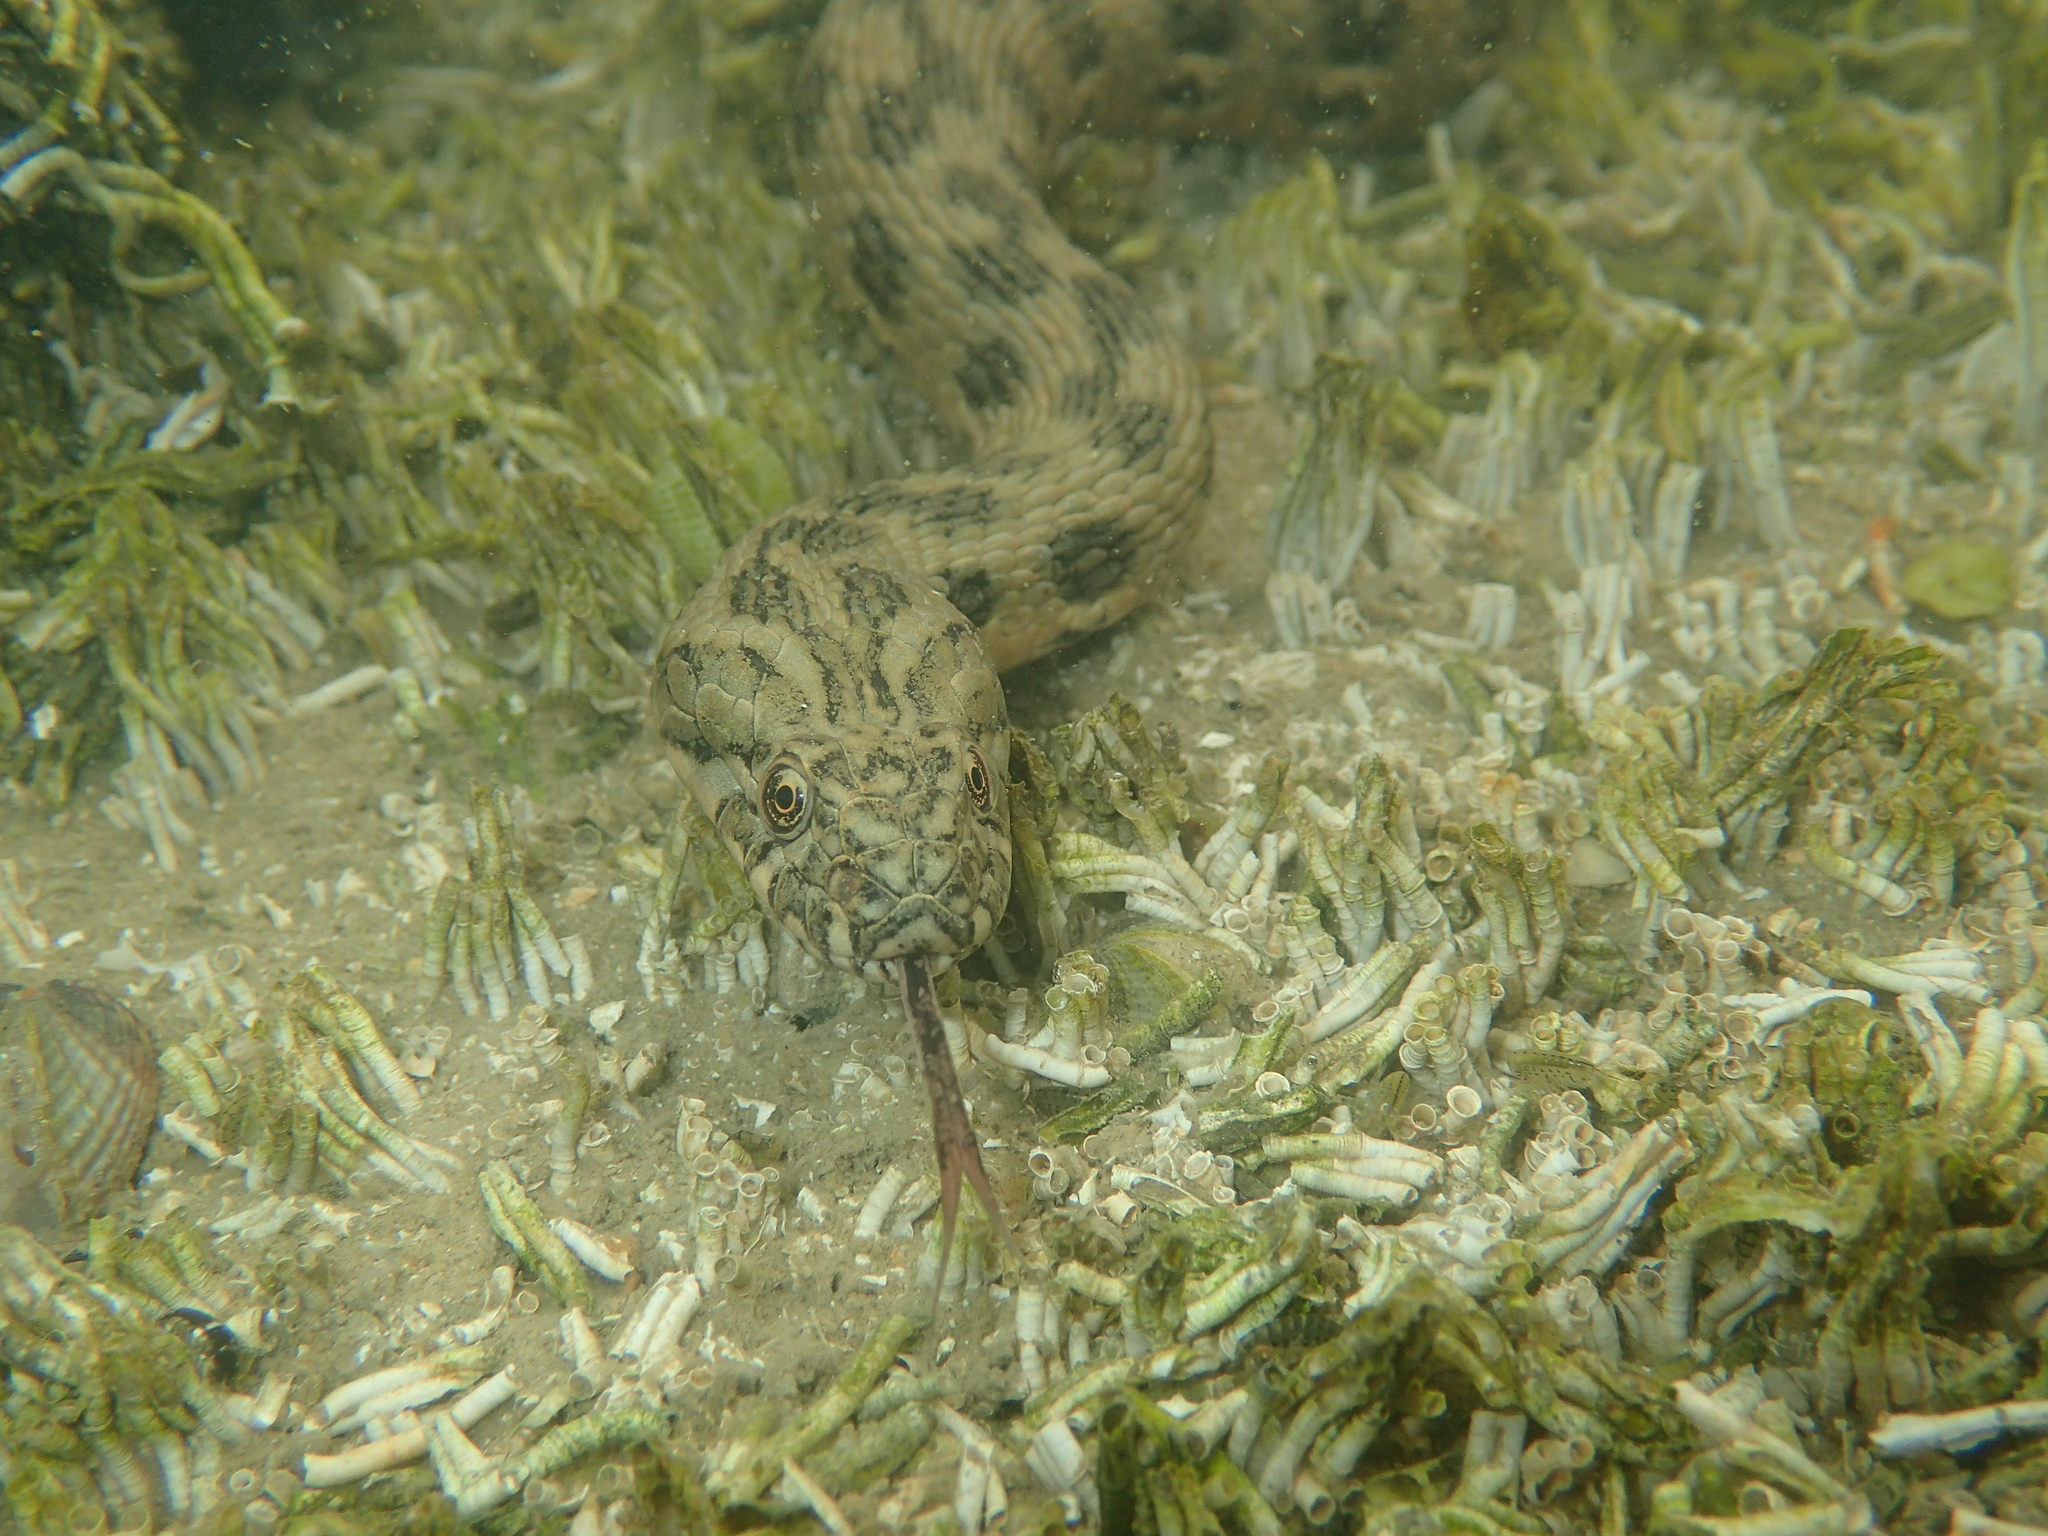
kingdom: Animalia
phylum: Chordata
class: Squamata
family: Colubridae
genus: Natrix
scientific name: Natrix maura
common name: Viperine water snake
